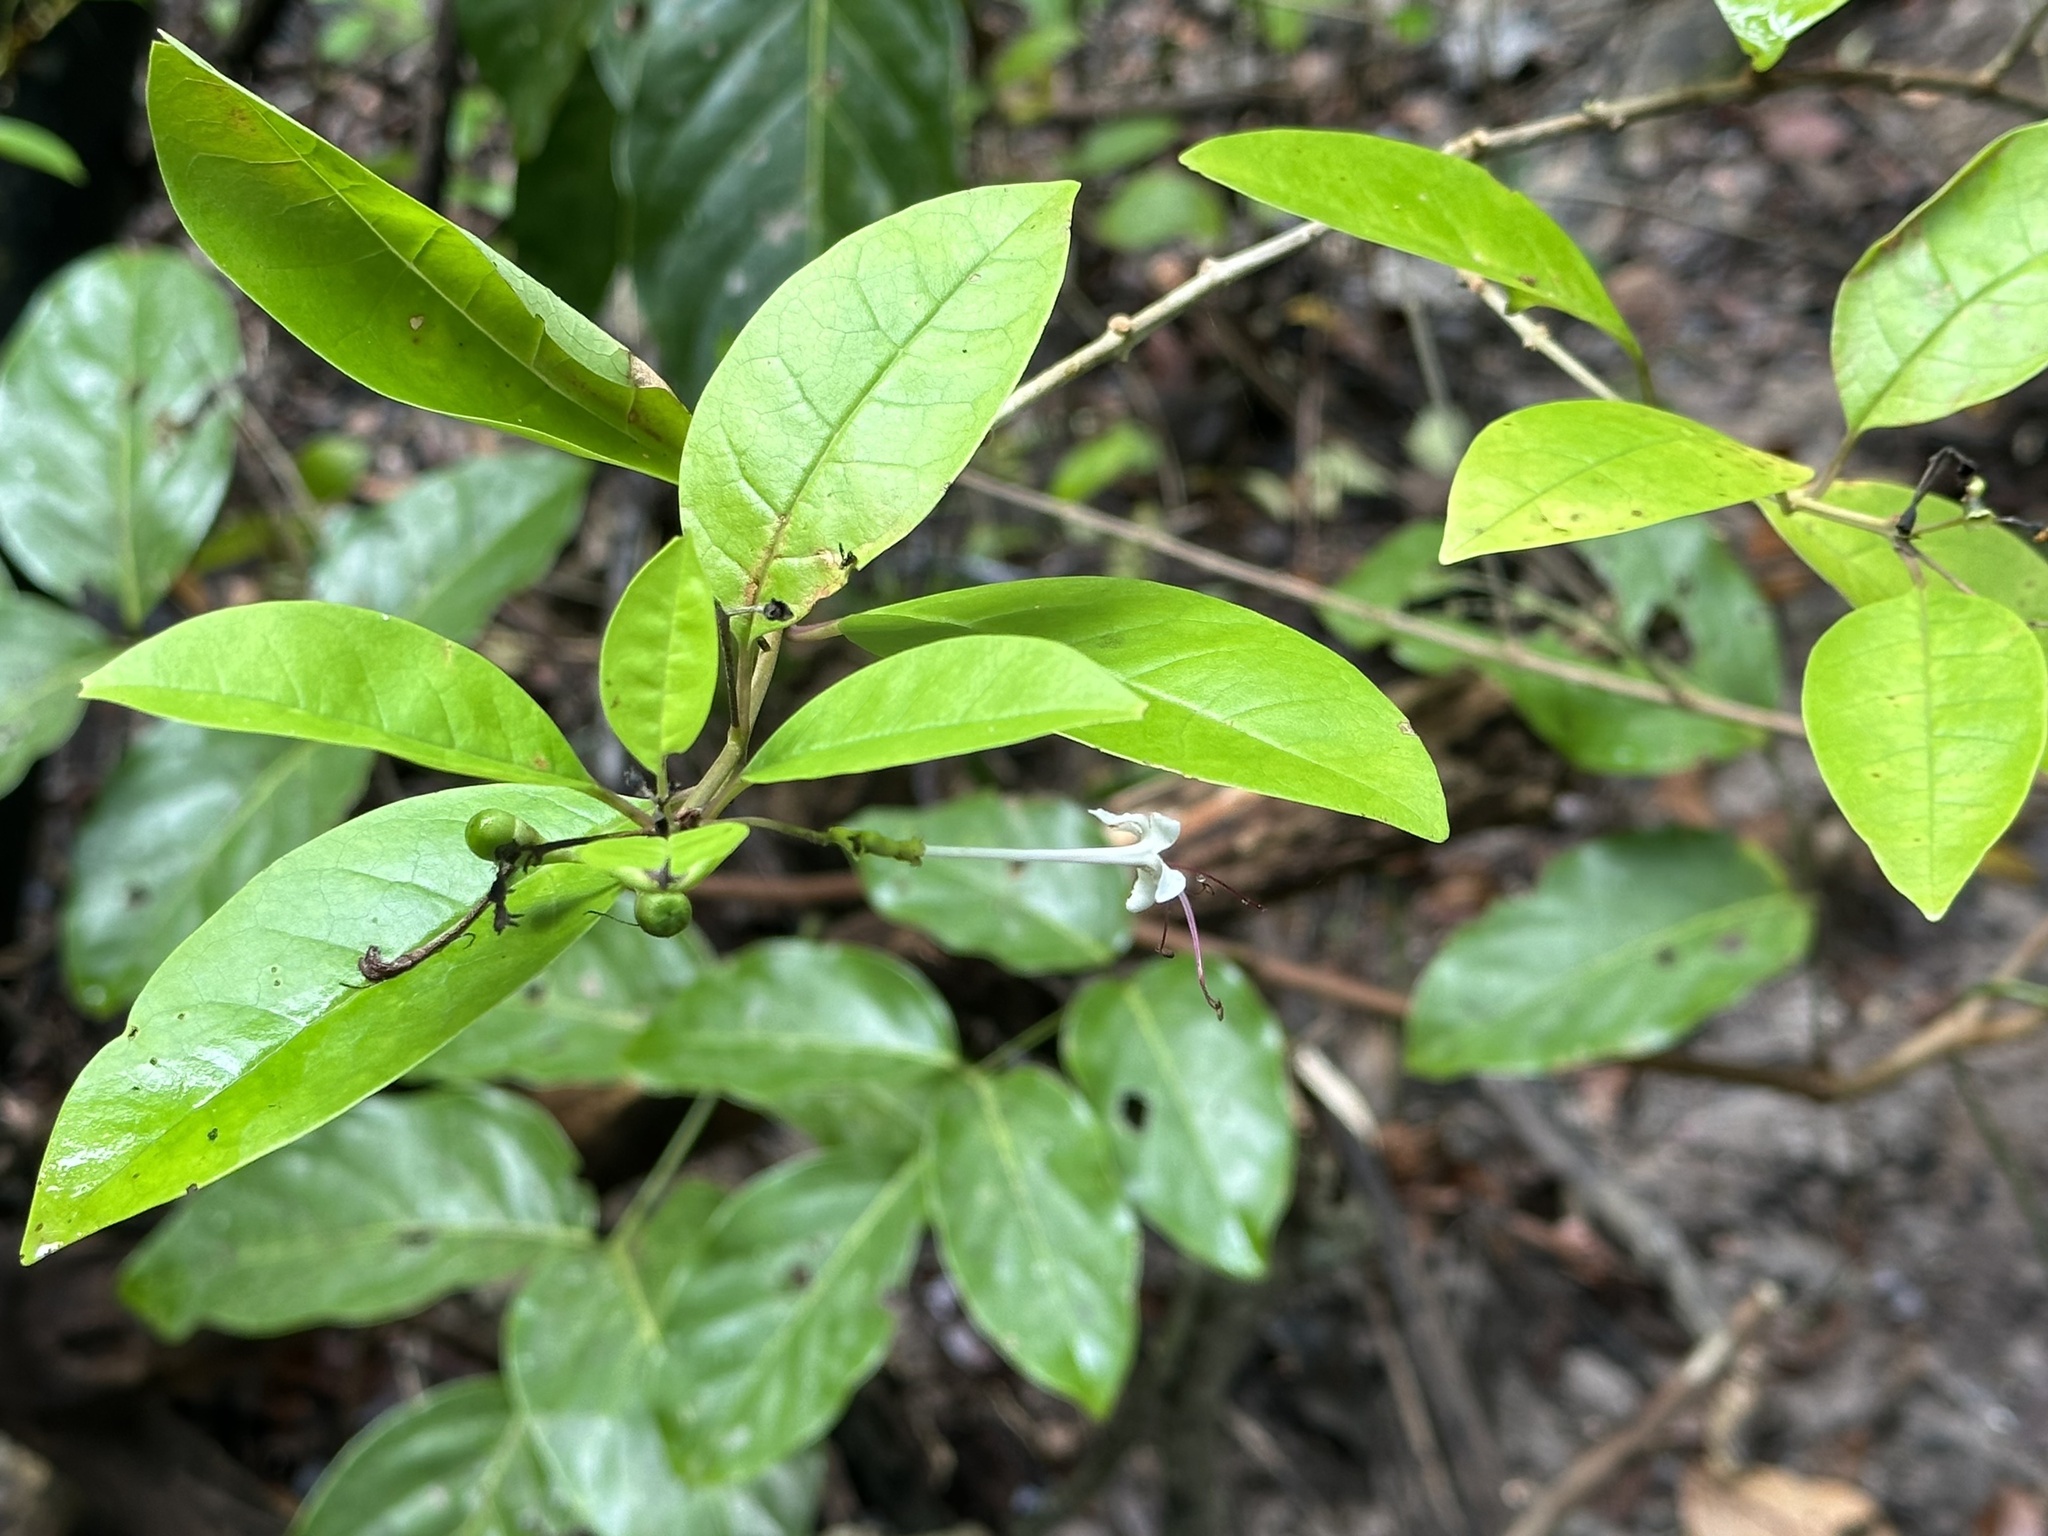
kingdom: Plantae
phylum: Tracheophyta
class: Magnoliopsida
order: Lamiales
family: Lamiaceae
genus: Volkameria
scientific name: Volkameria inermis
